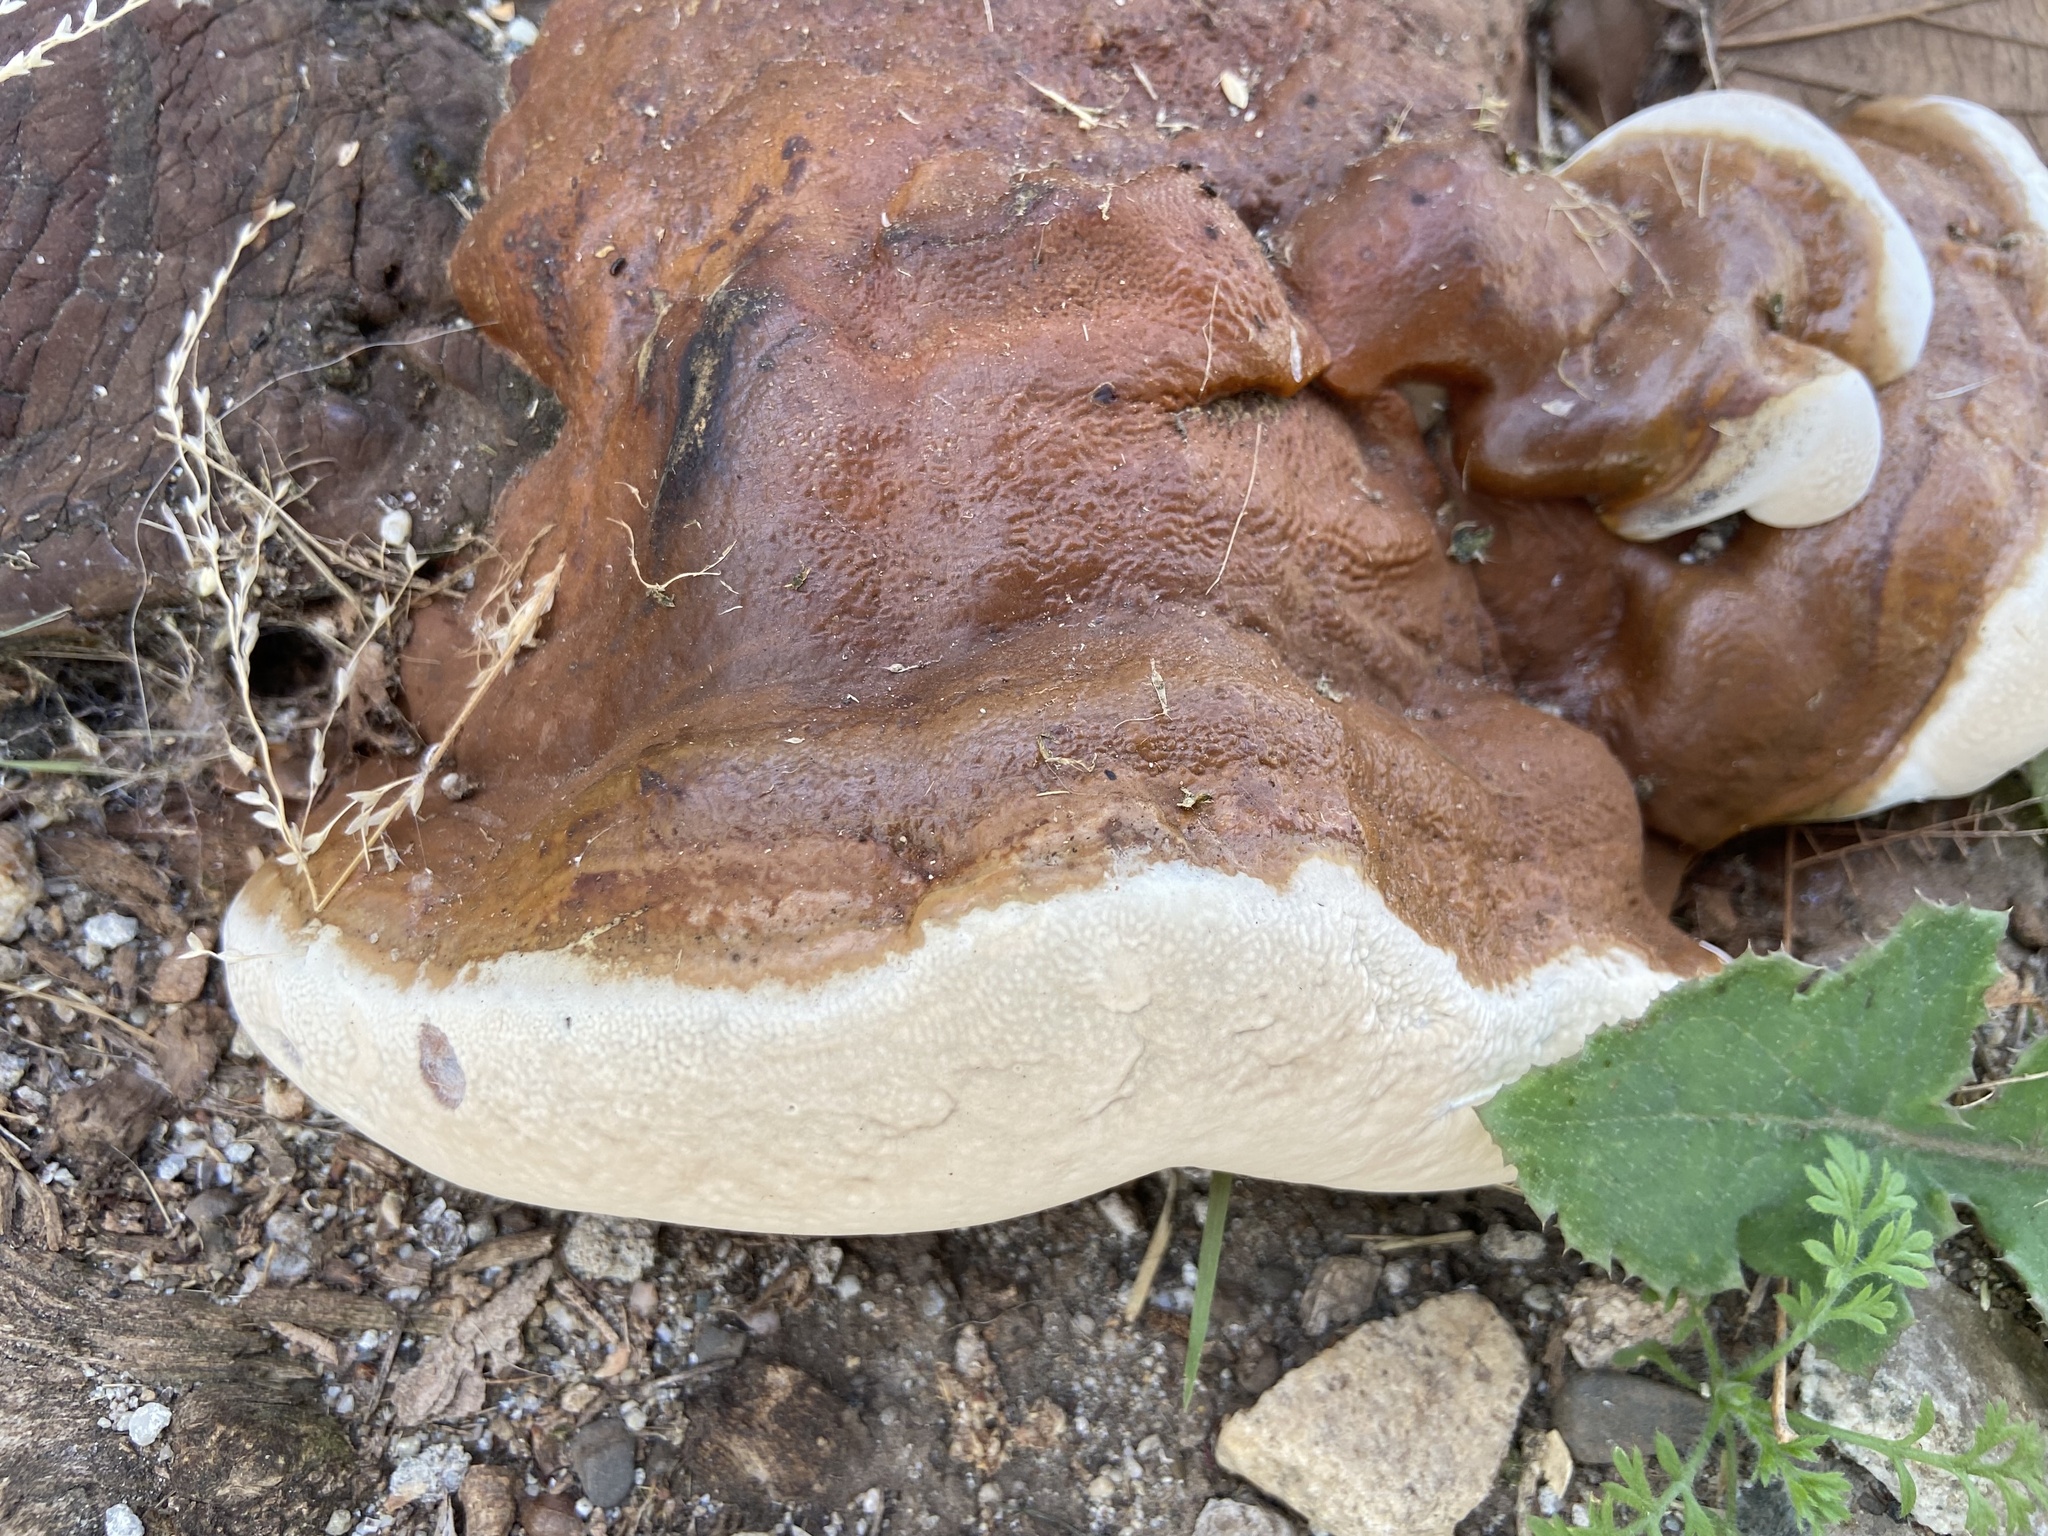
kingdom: Fungi
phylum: Basidiomycota
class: Agaricomycetes
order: Polyporales
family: Polyporaceae
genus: Ganoderma
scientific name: Ganoderma polychromum
